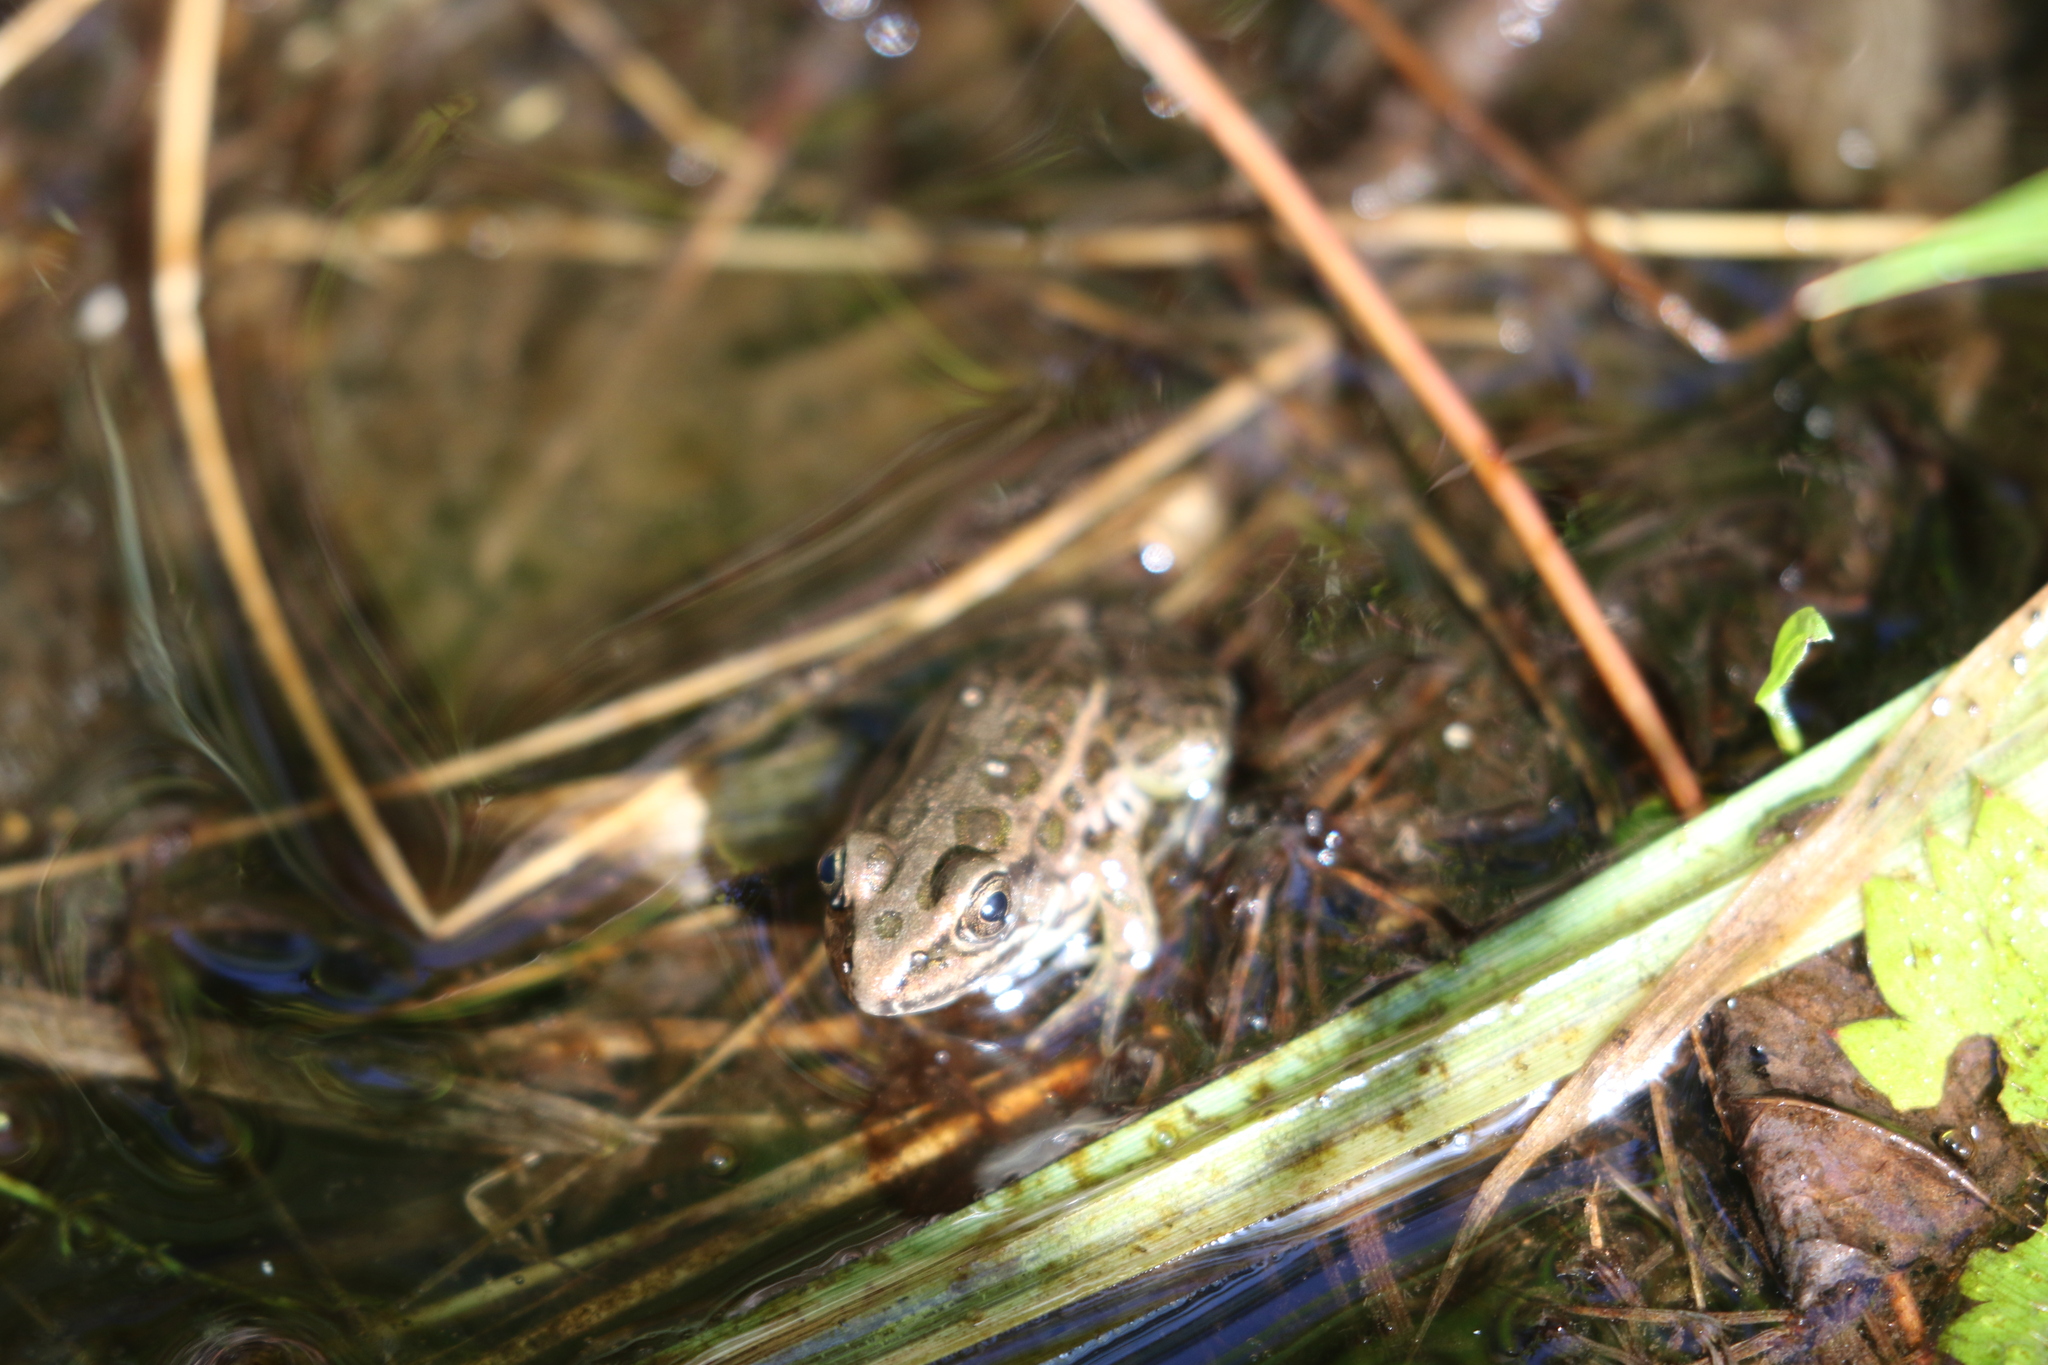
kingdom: Animalia
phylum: Chordata
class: Amphibia
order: Anura
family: Ranidae
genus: Lithobates
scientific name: Lithobates palustris
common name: Pickerel frog
